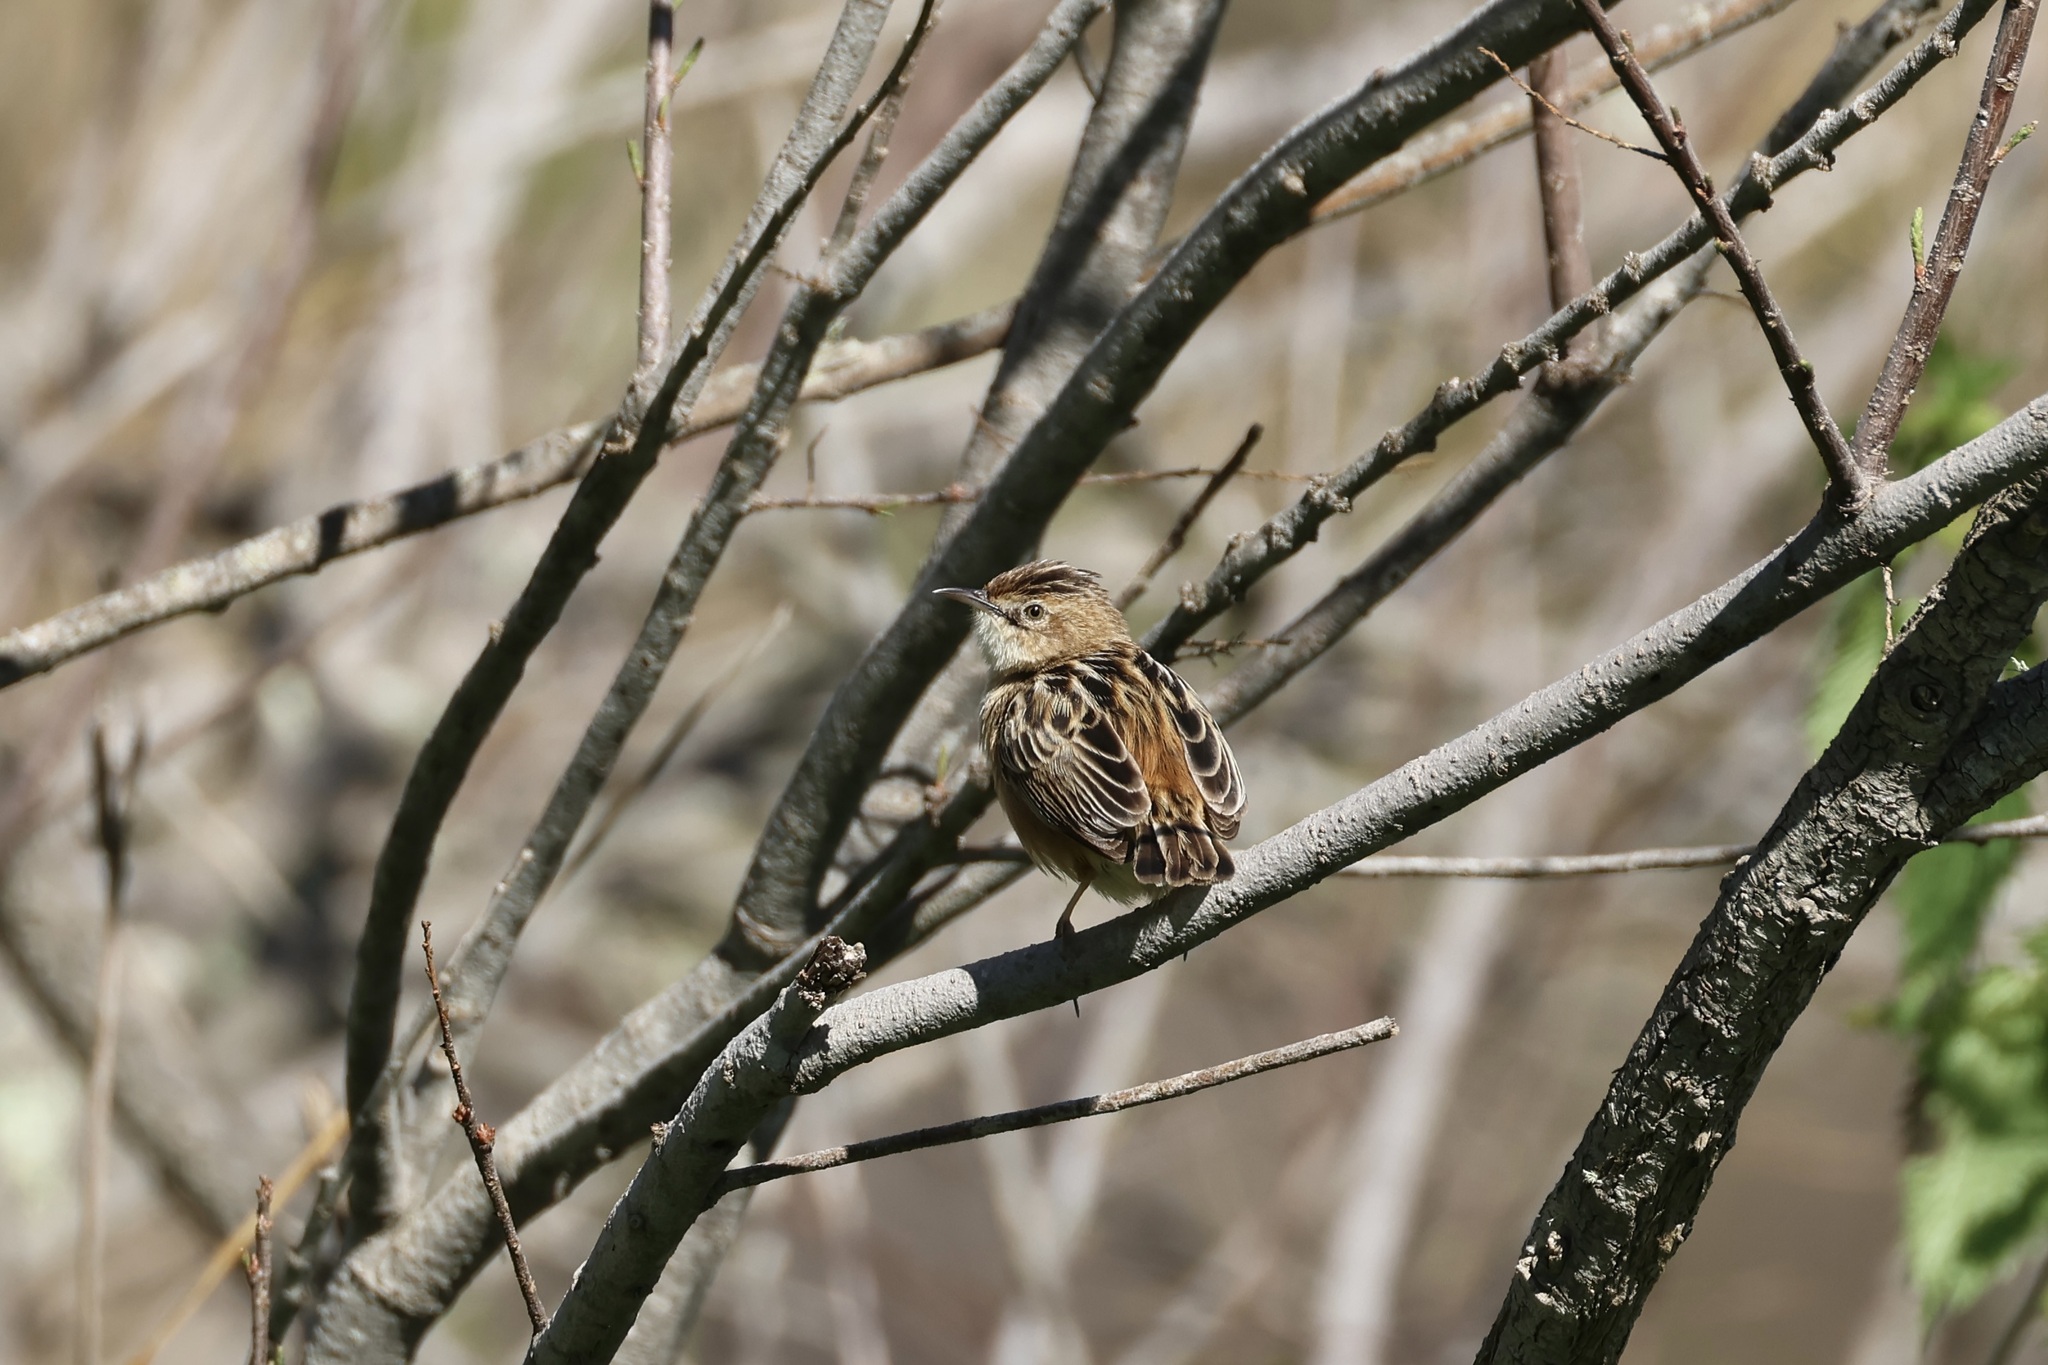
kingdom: Animalia
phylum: Chordata
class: Aves
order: Passeriformes
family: Cisticolidae
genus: Cisticola
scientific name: Cisticola juncidis
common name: Zitting cisticola
